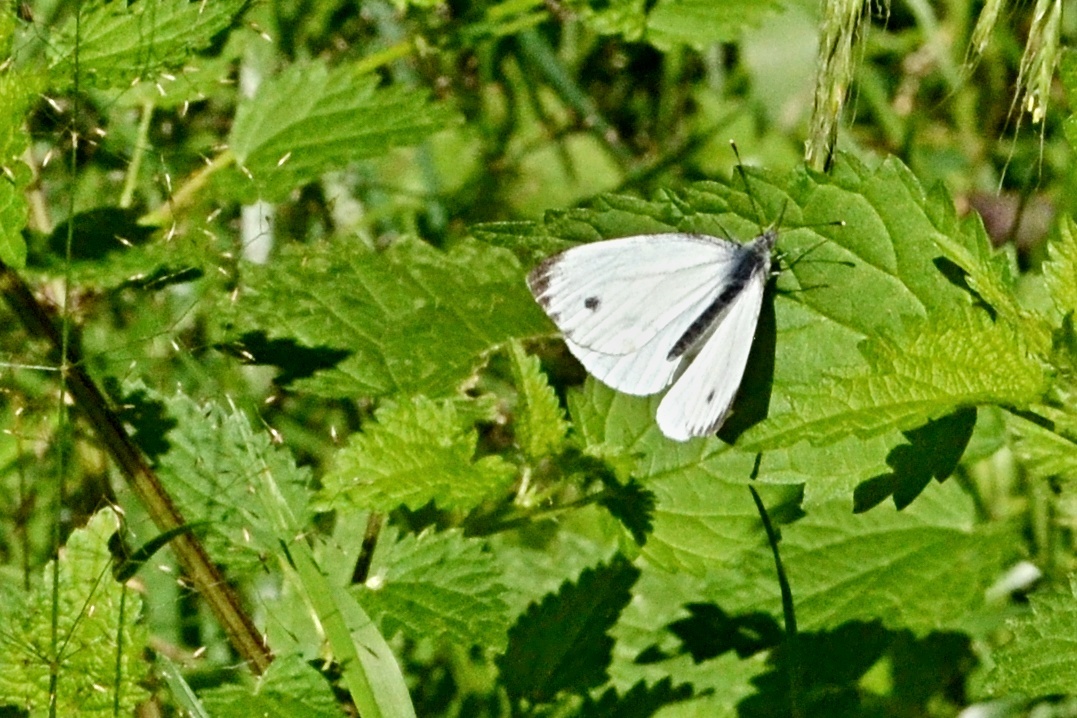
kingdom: Animalia
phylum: Arthropoda
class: Insecta
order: Lepidoptera
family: Pieridae
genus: Pieris
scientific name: Pieris napi
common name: Green-veined white
